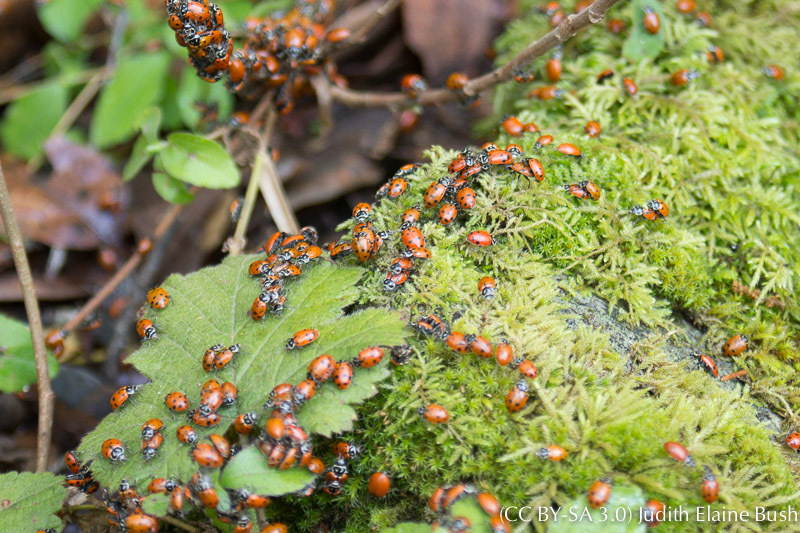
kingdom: Animalia
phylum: Arthropoda
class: Insecta
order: Coleoptera
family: Coccinellidae
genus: Hippodamia
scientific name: Hippodamia convergens
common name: Convergent lady beetle
